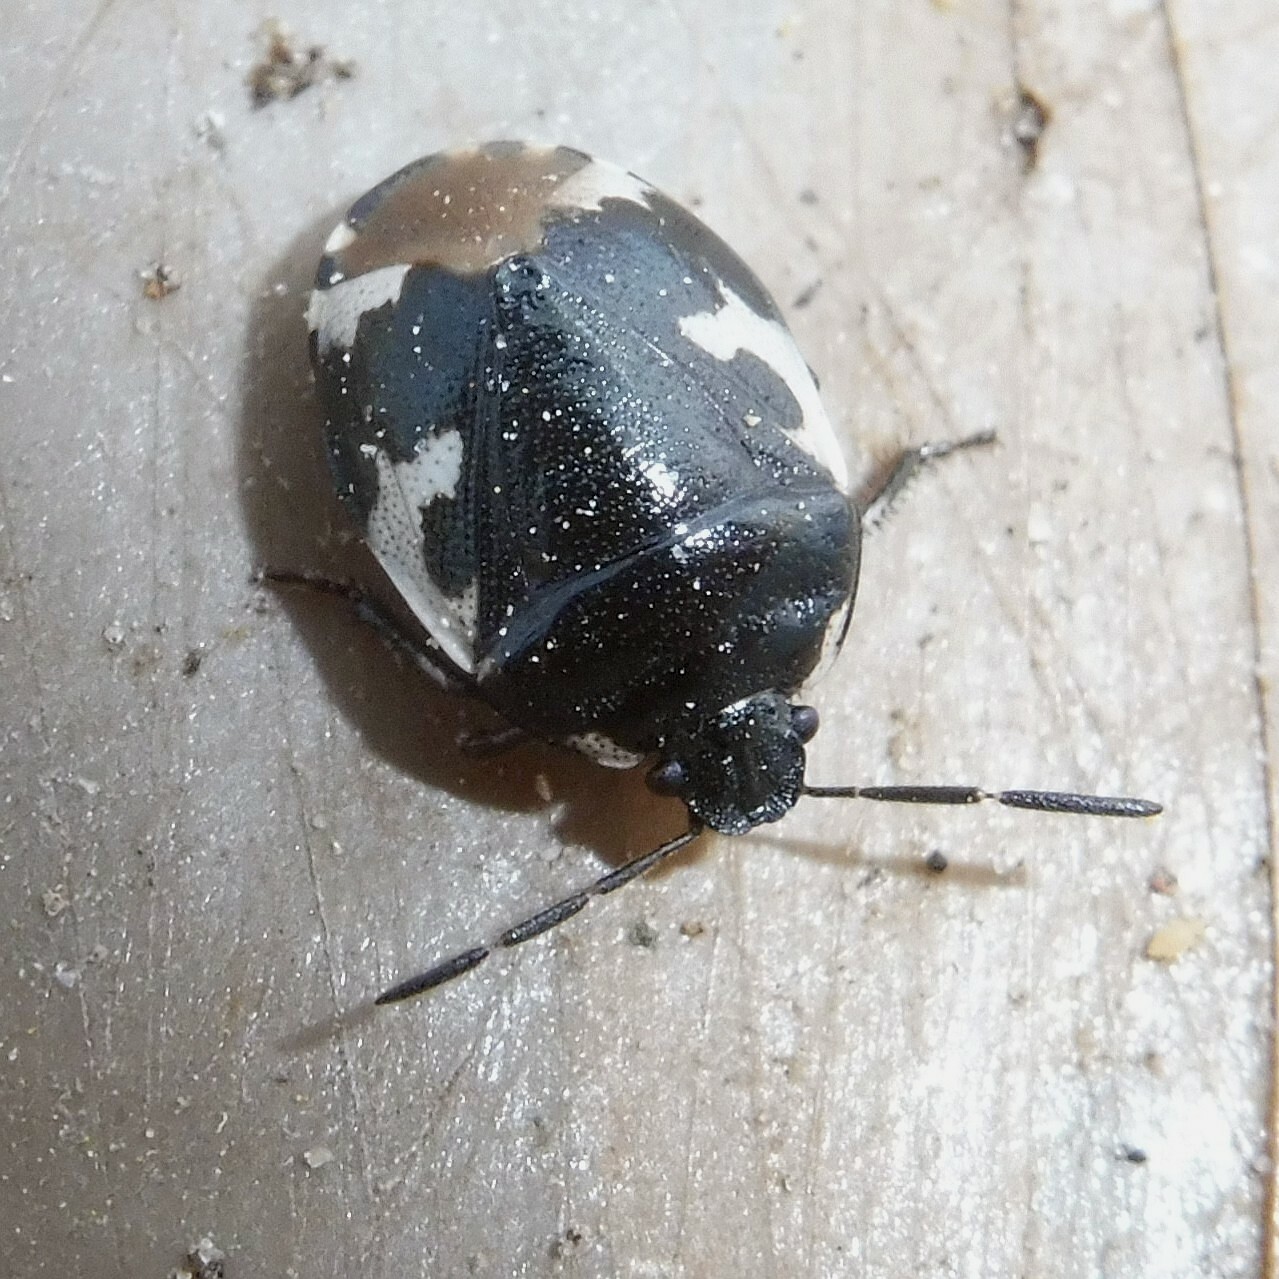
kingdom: Animalia
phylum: Arthropoda
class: Insecta
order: Hemiptera
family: Cydnidae
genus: Tritomegas
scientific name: Tritomegas bicolor
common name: Pied shieldbug
